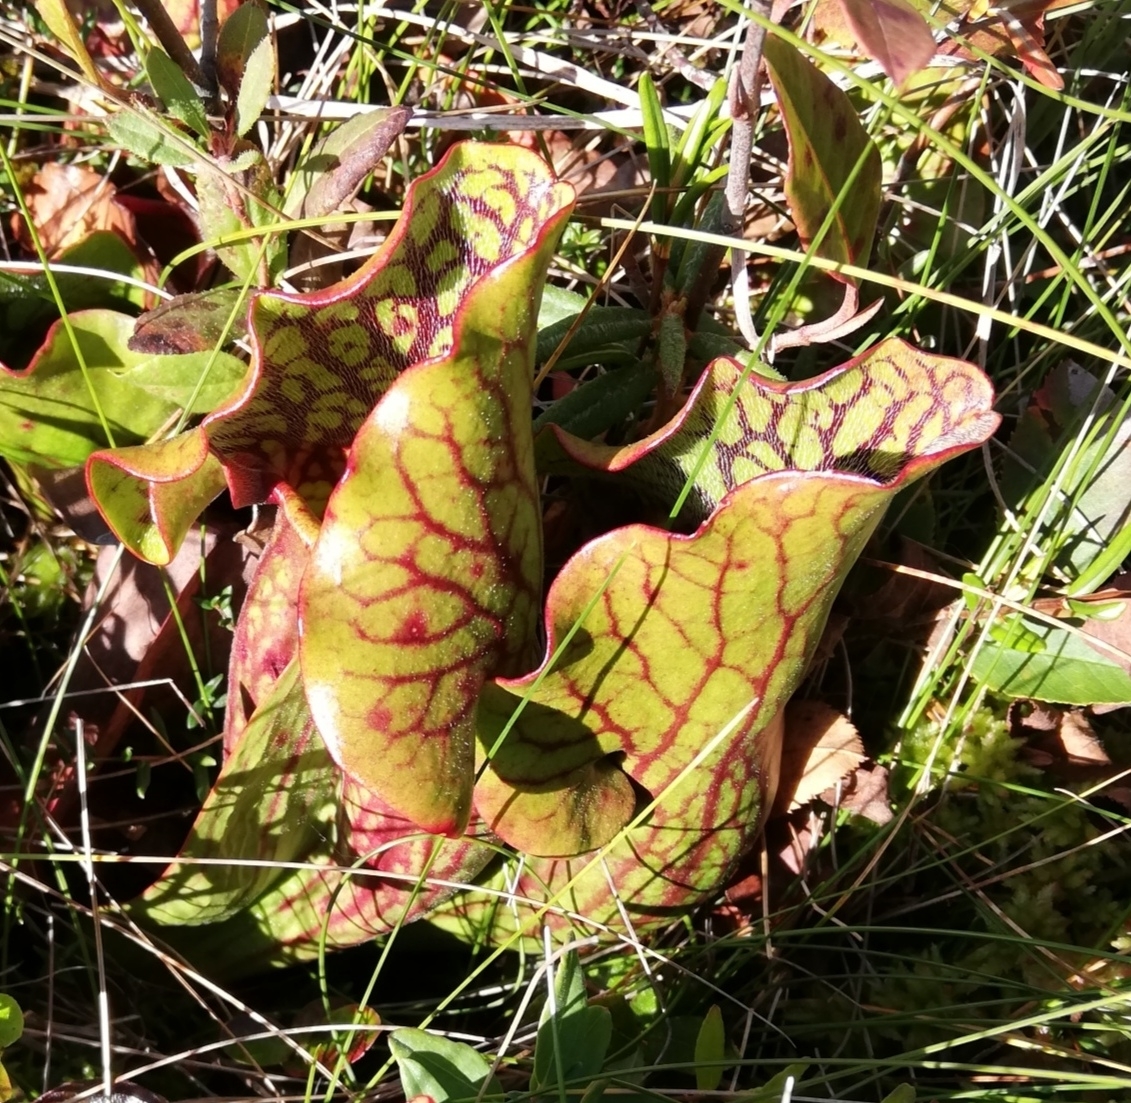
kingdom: Plantae
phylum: Tracheophyta
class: Magnoliopsida
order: Ericales
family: Sarraceniaceae
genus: Sarracenia
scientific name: Sarracenia purpurea
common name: Pitcherplant
